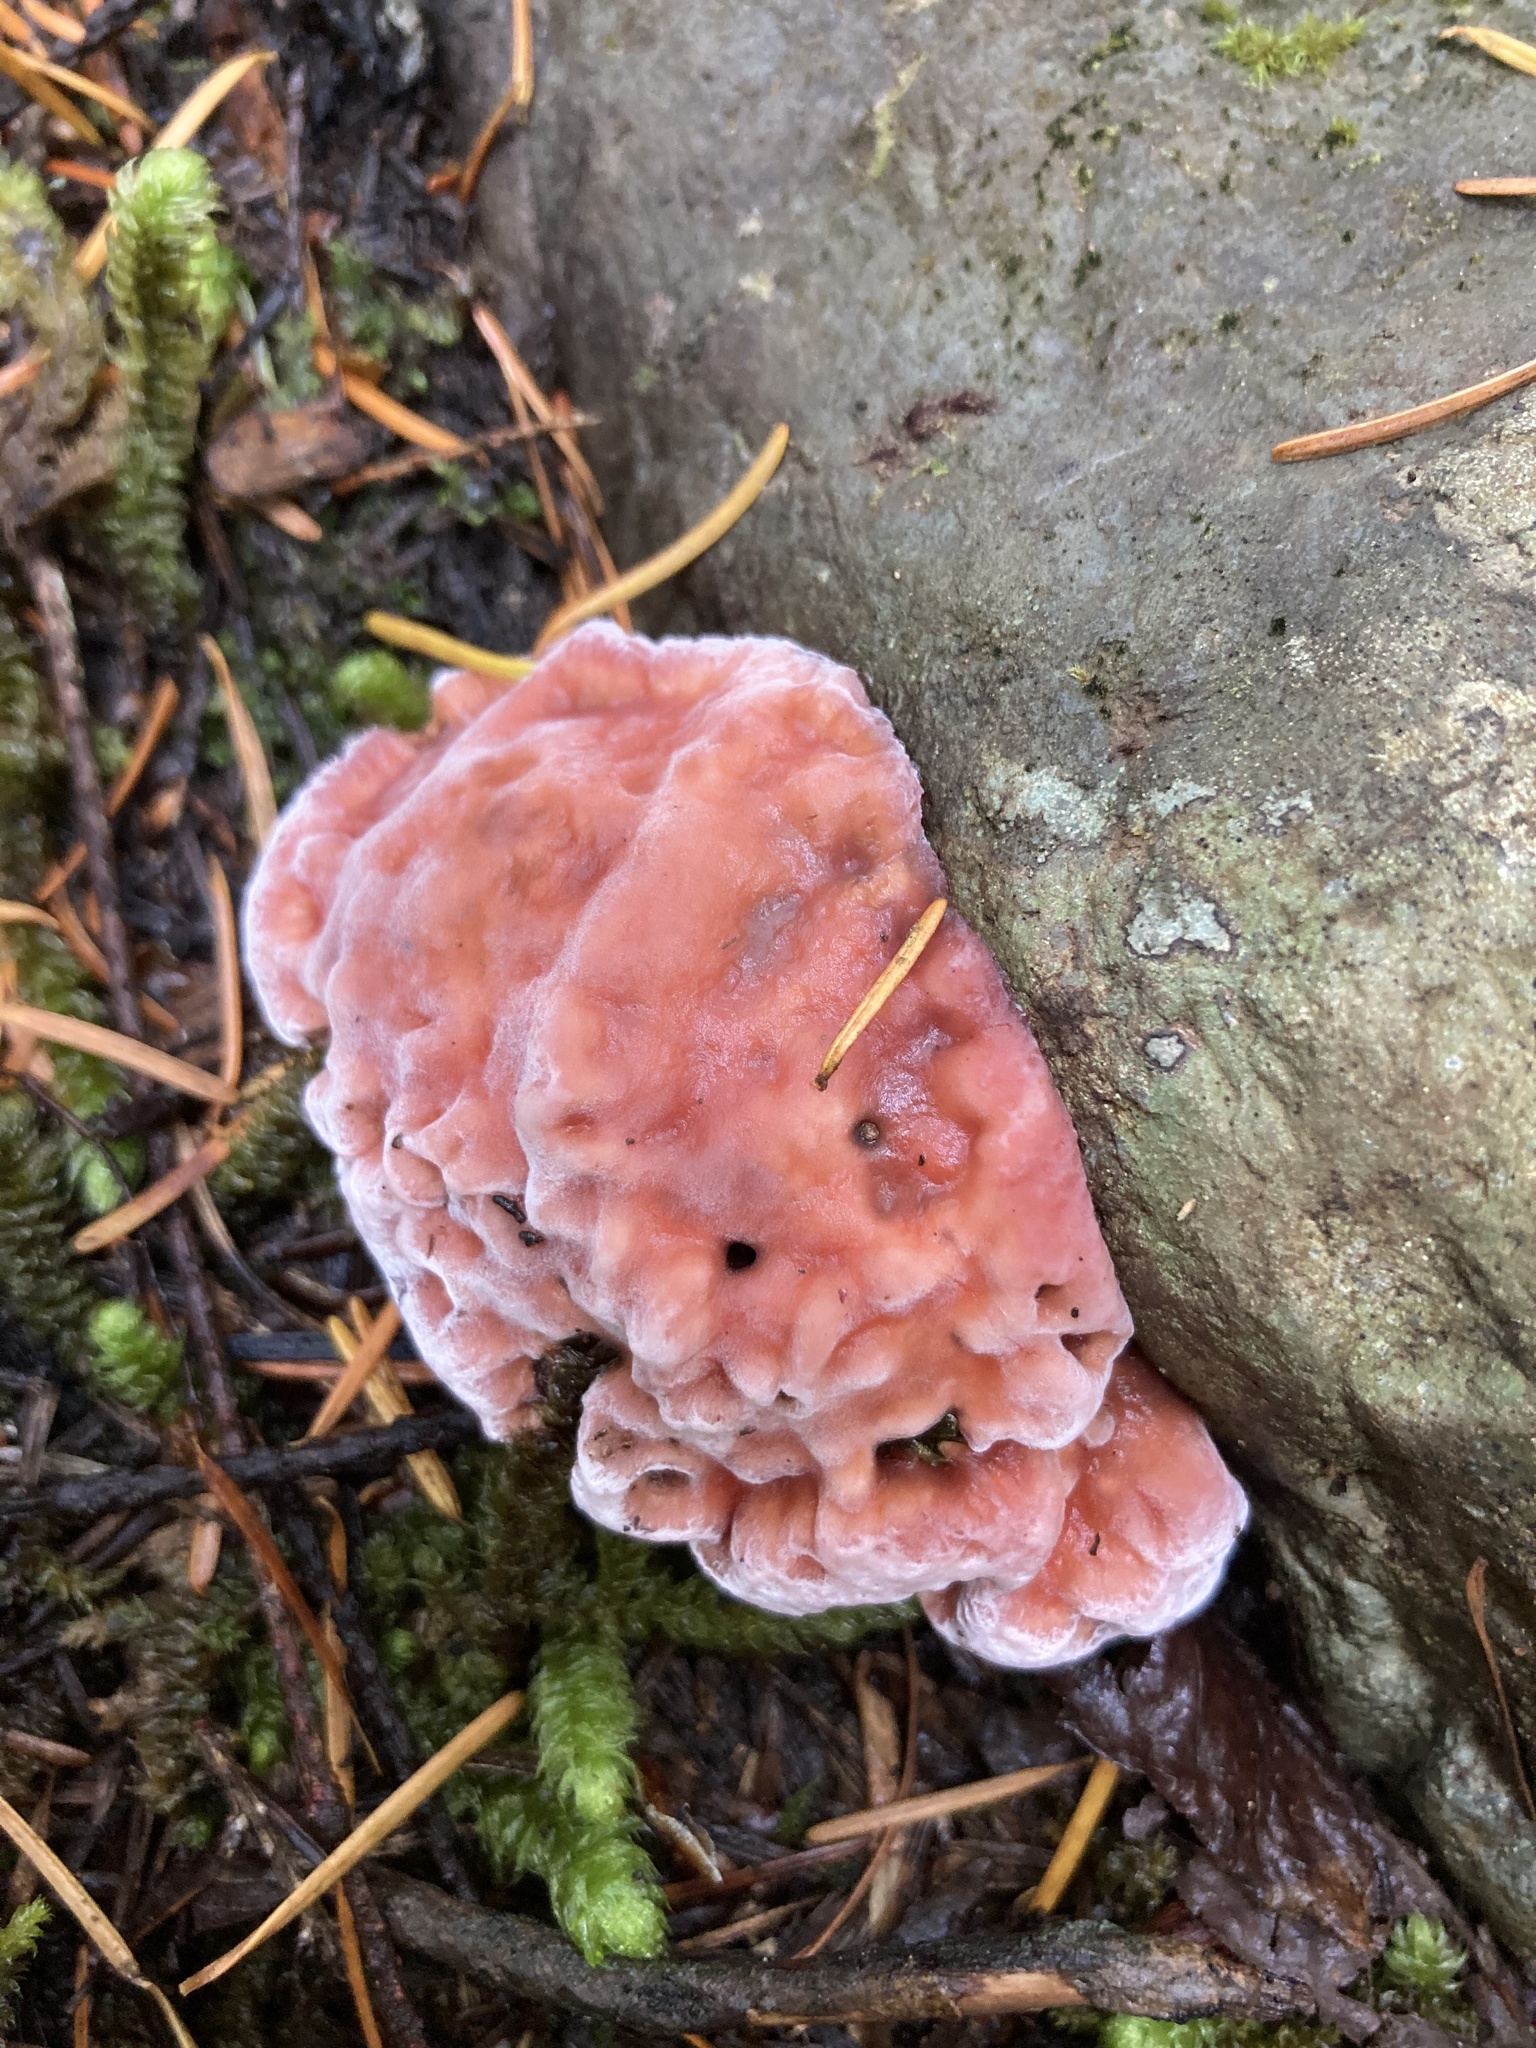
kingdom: Fungi
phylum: Basidiomycota
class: Agaricomycetes
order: Polyporales
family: Fomitopsidaceae
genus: Rhodofomes
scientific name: Rhodofomes cajanderi
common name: Rosy conk
